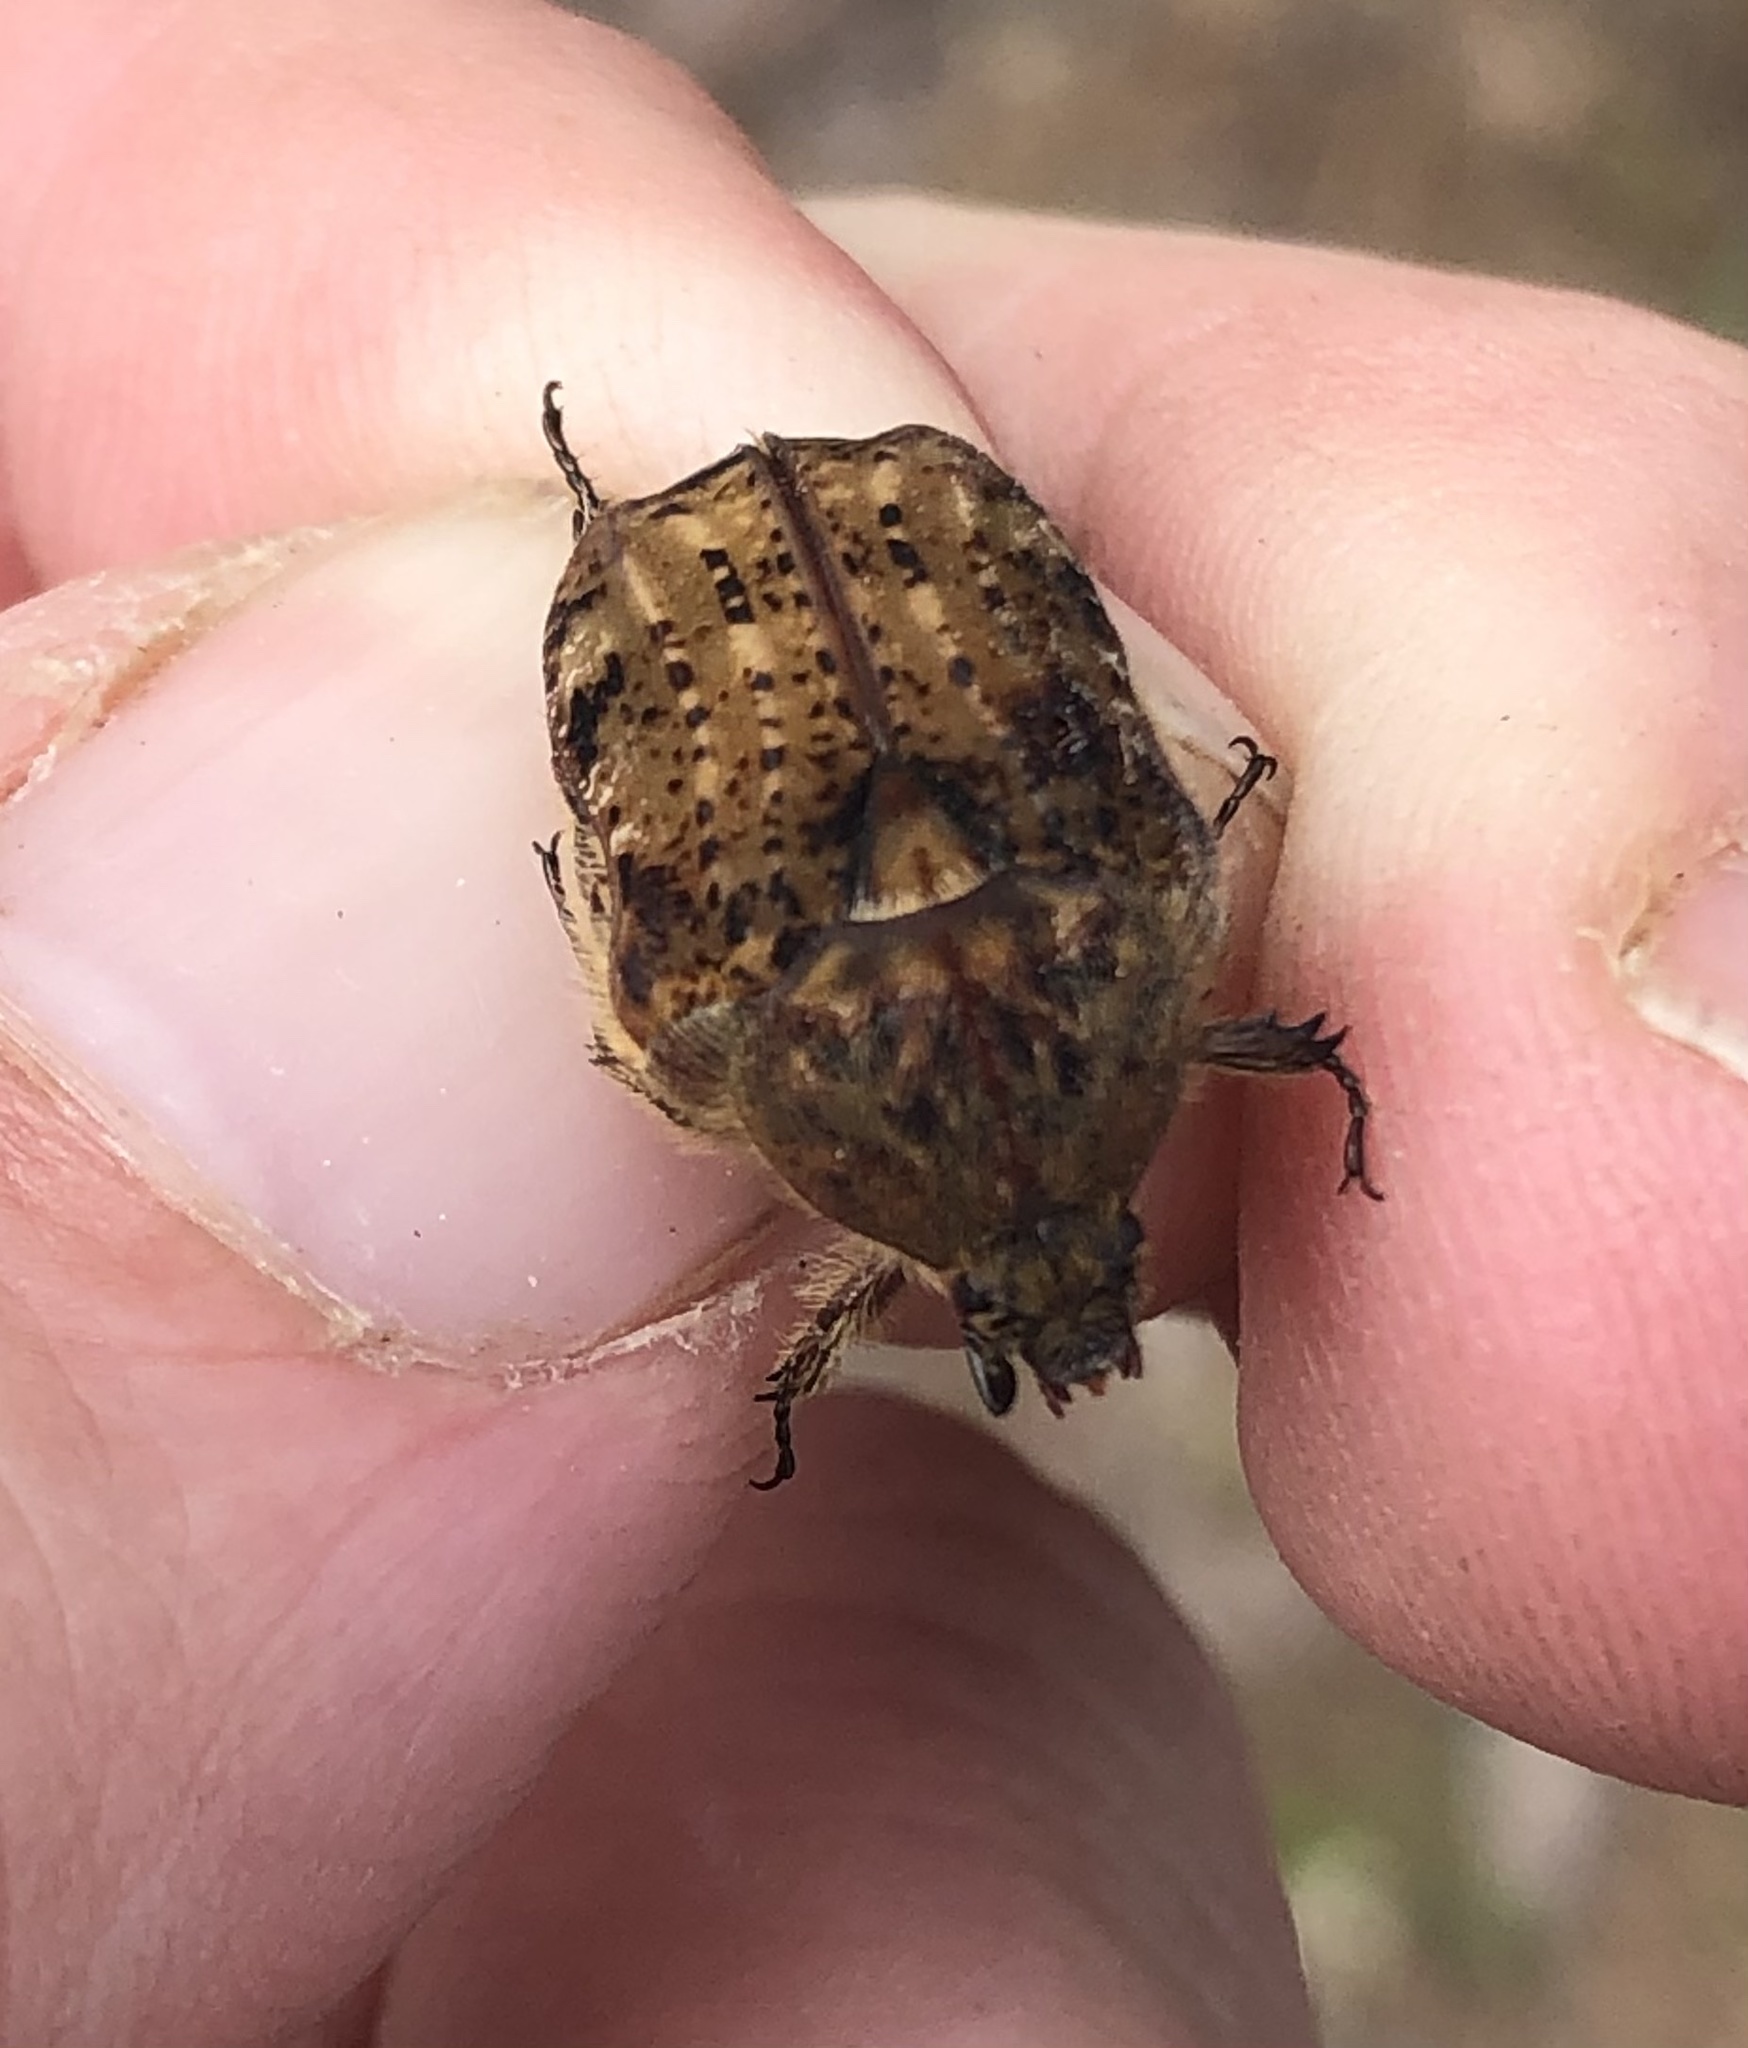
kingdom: Animalia
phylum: Arthropoda
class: Insecta
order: Coleoptera
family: Scarabaeidae
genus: Euphoria
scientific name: Euphoria inda
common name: Bumble flower beetle
